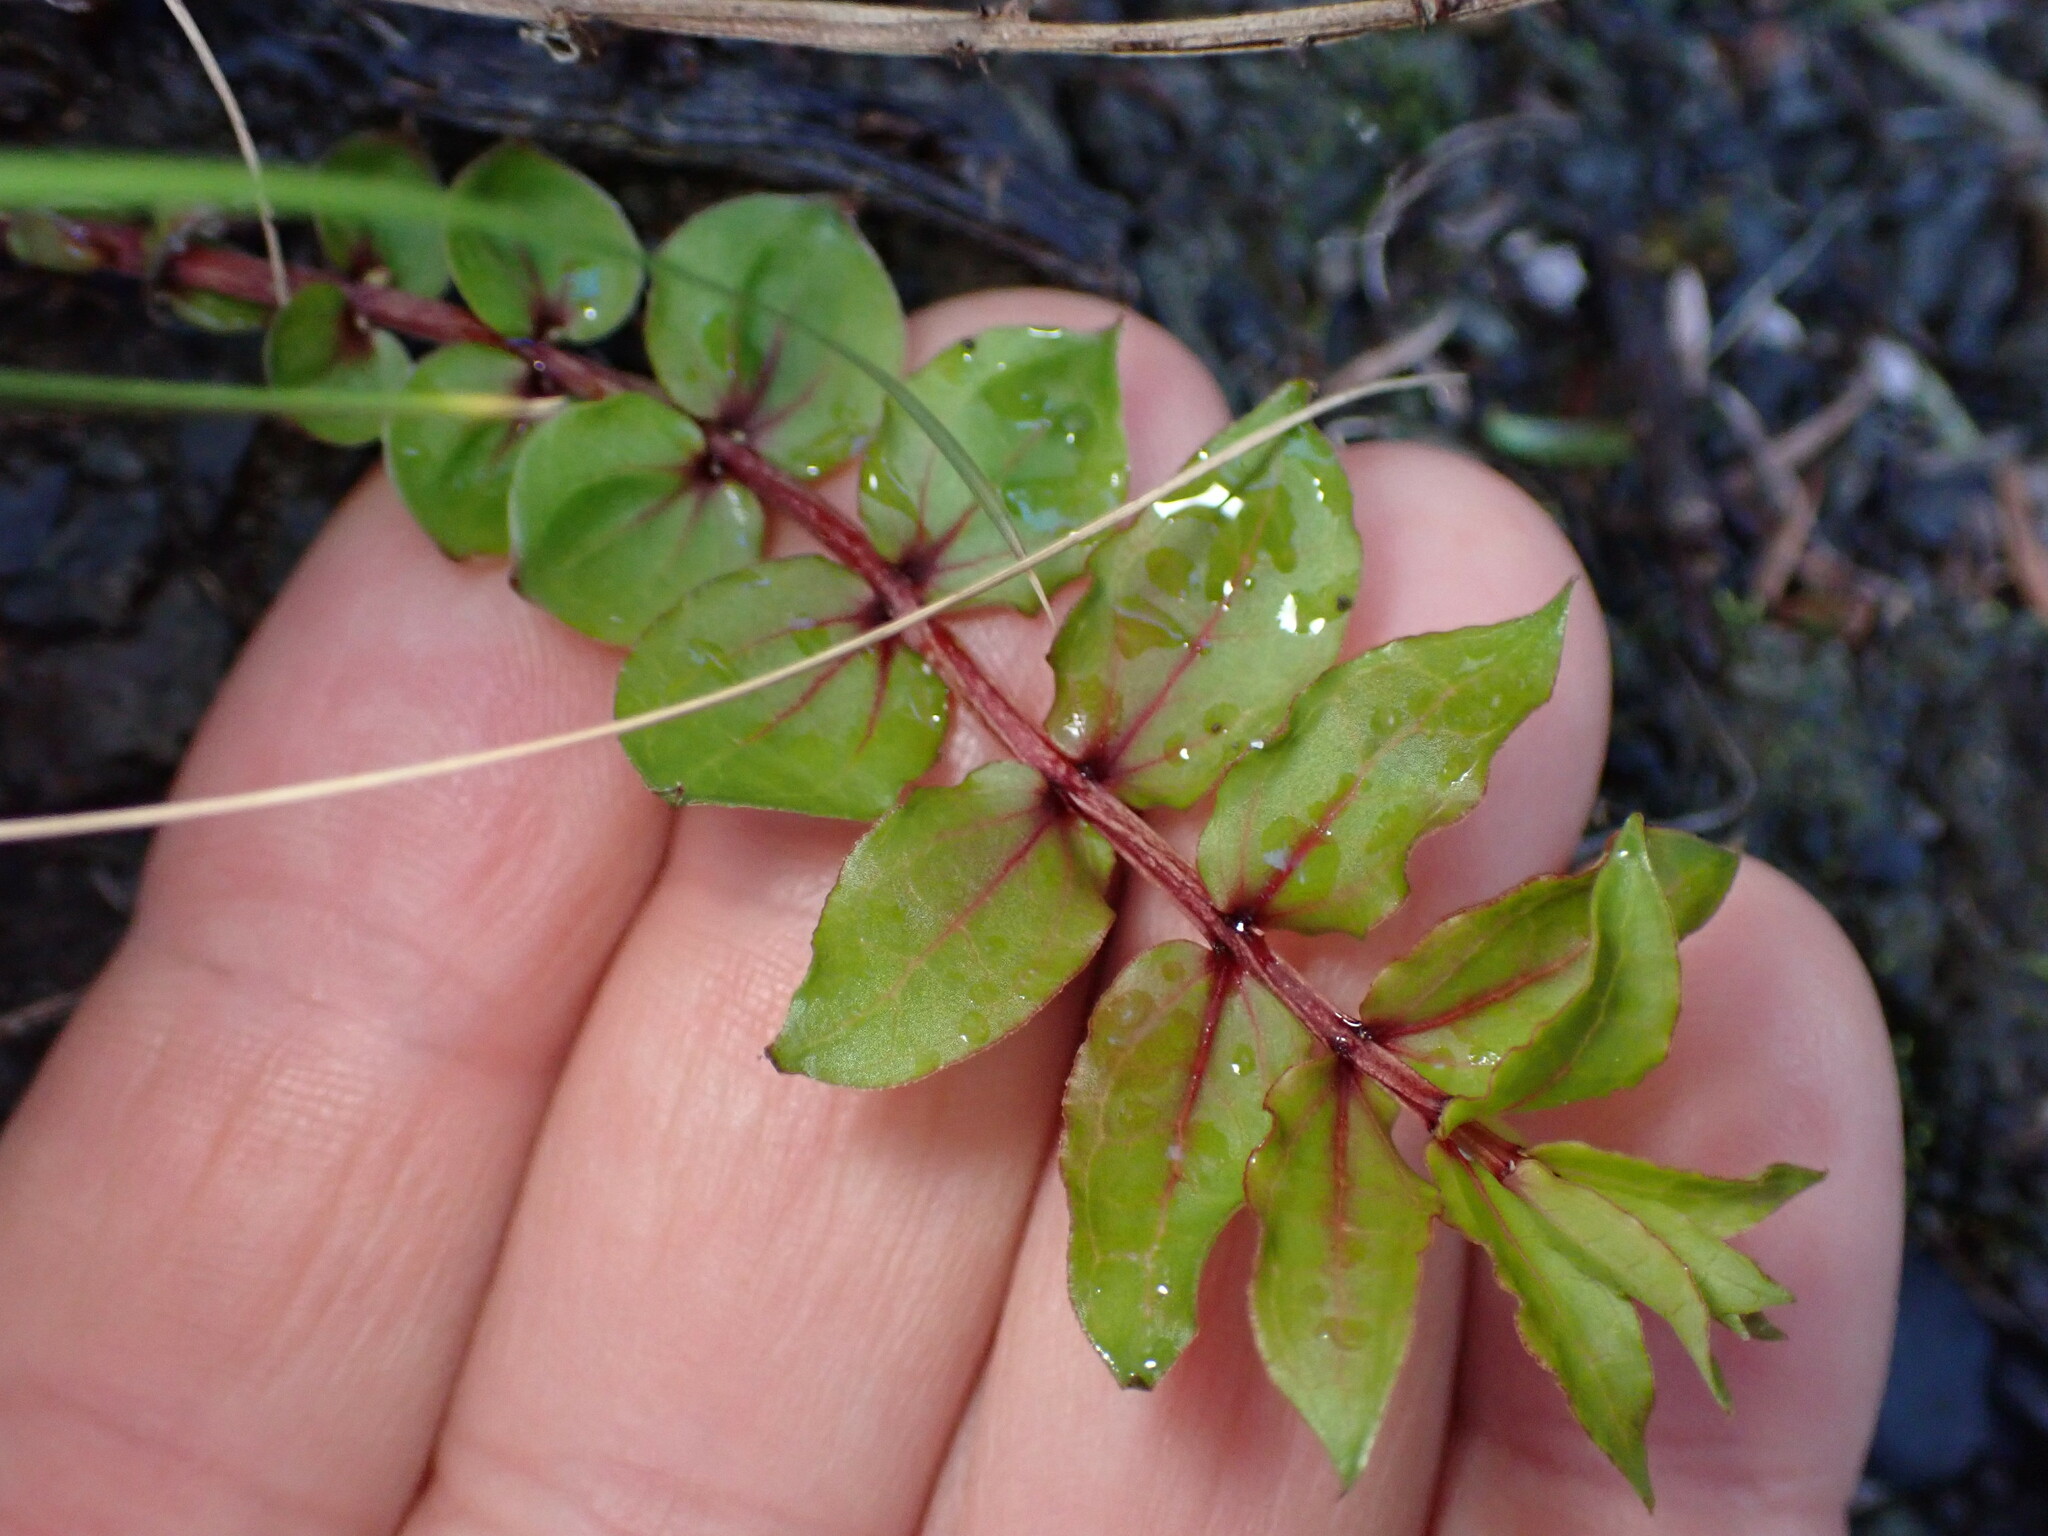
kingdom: Plantae
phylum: Tracheophyta
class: Magnoliopsida
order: Cucurbitales
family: Coriariaceae
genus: Coriaria
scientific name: Coriaria sarmentosa
